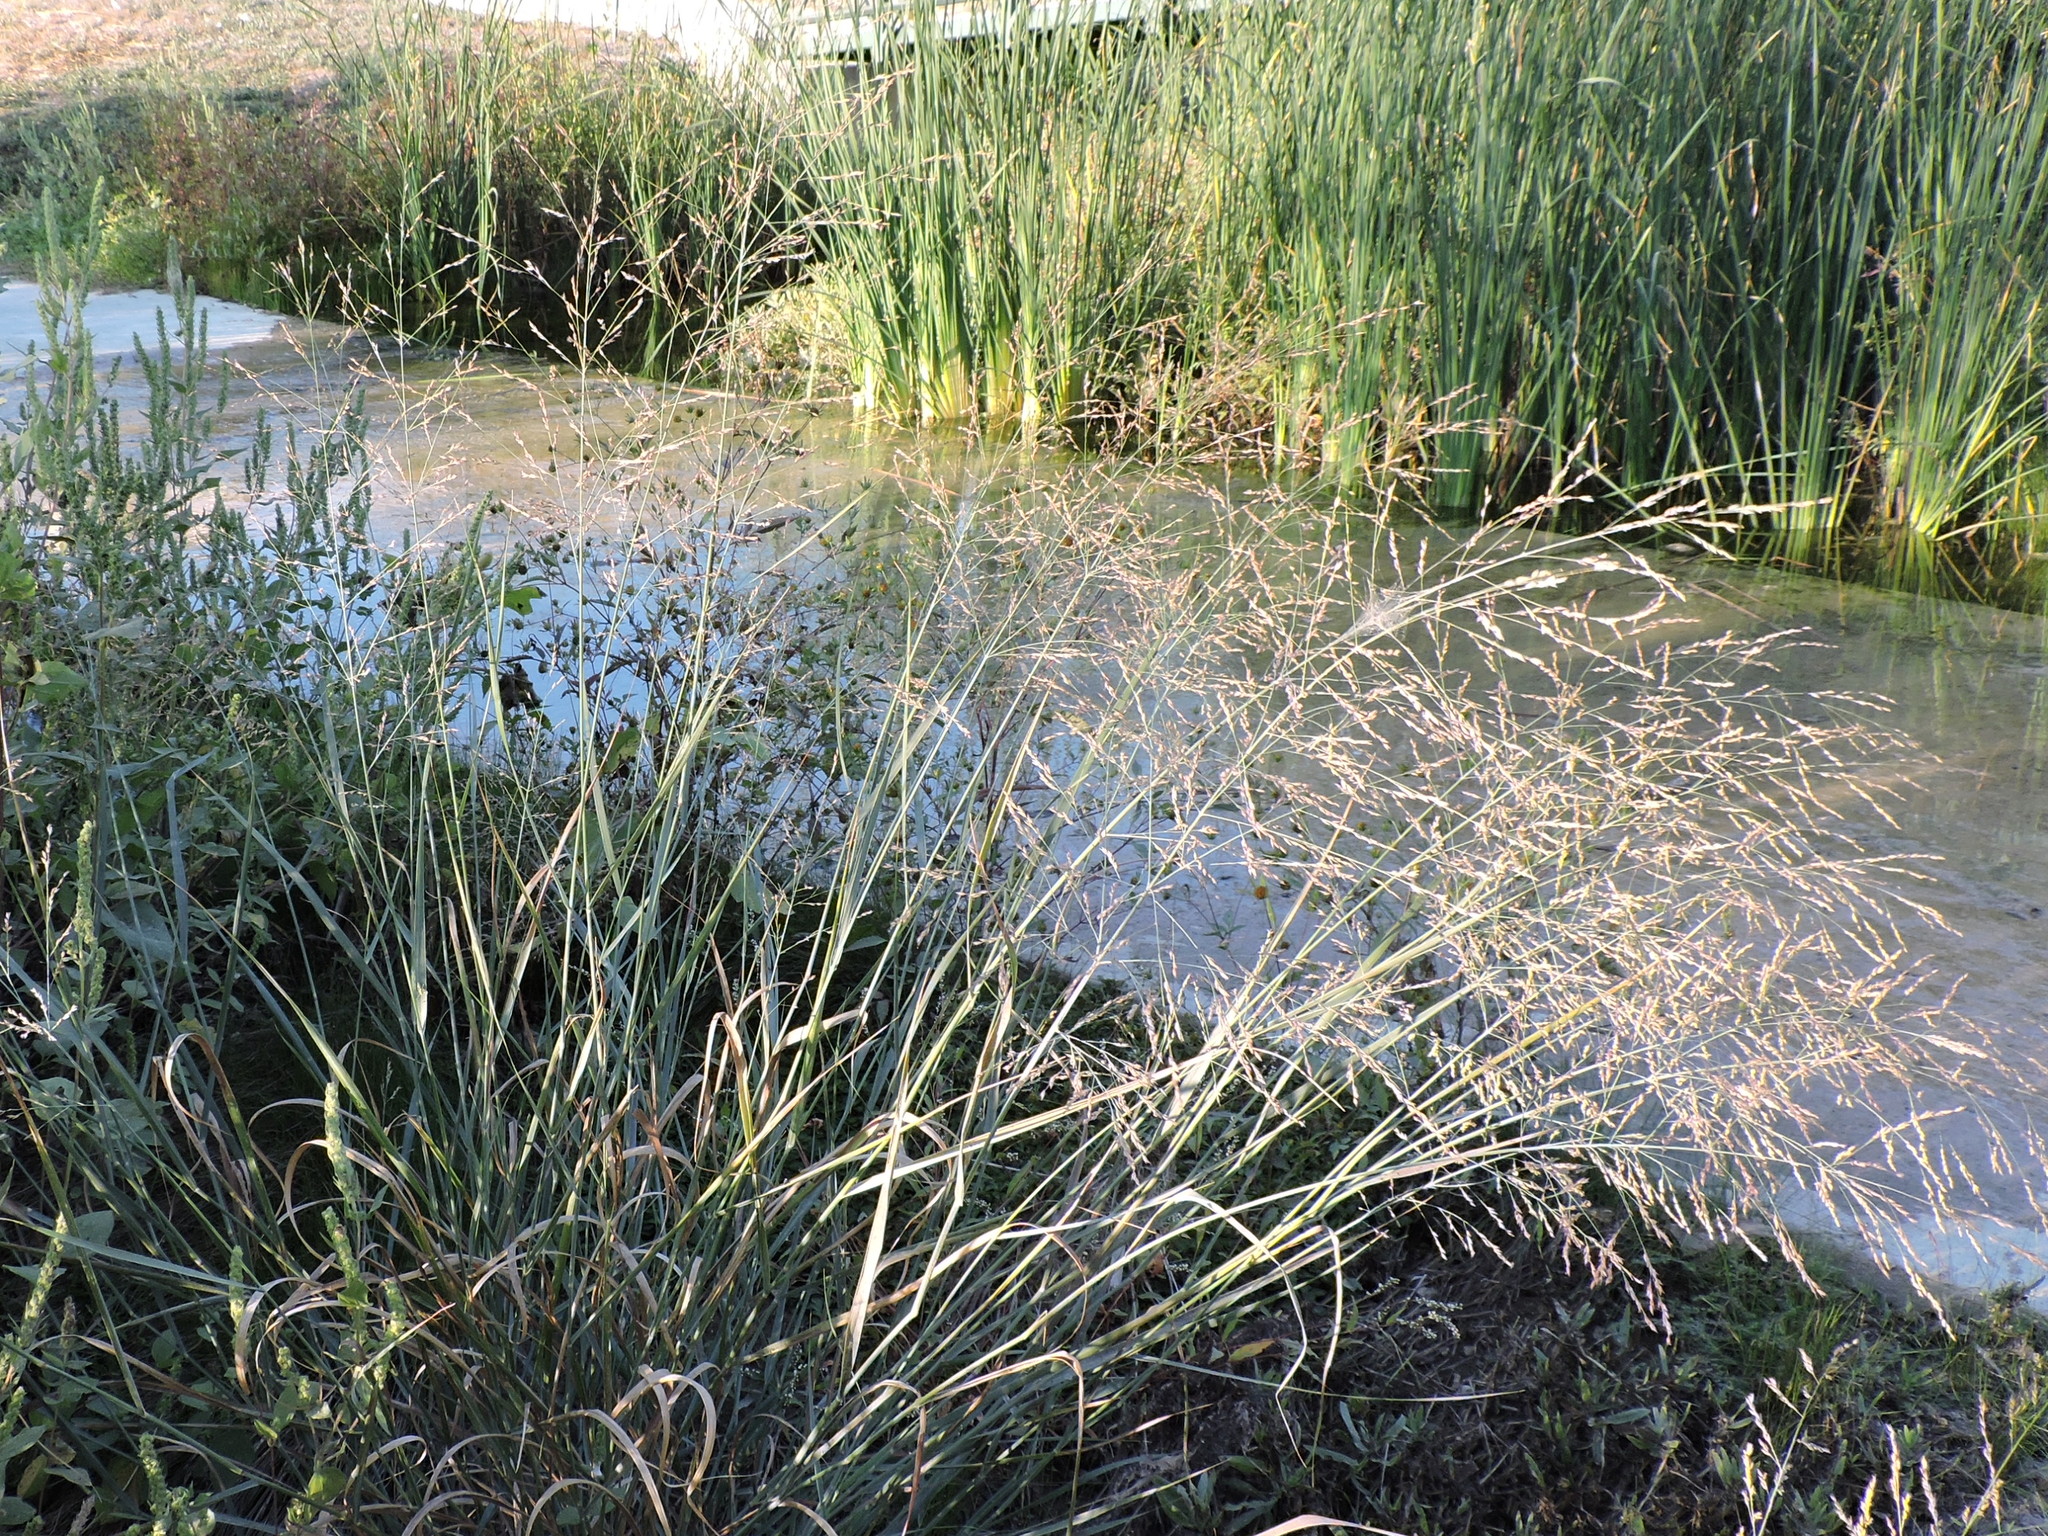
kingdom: Plantae
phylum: Tracheophyta
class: Liliopsida
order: Poales
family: Poaceae
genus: Panicum
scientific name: Panicum virgatum
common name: Switchgrass
